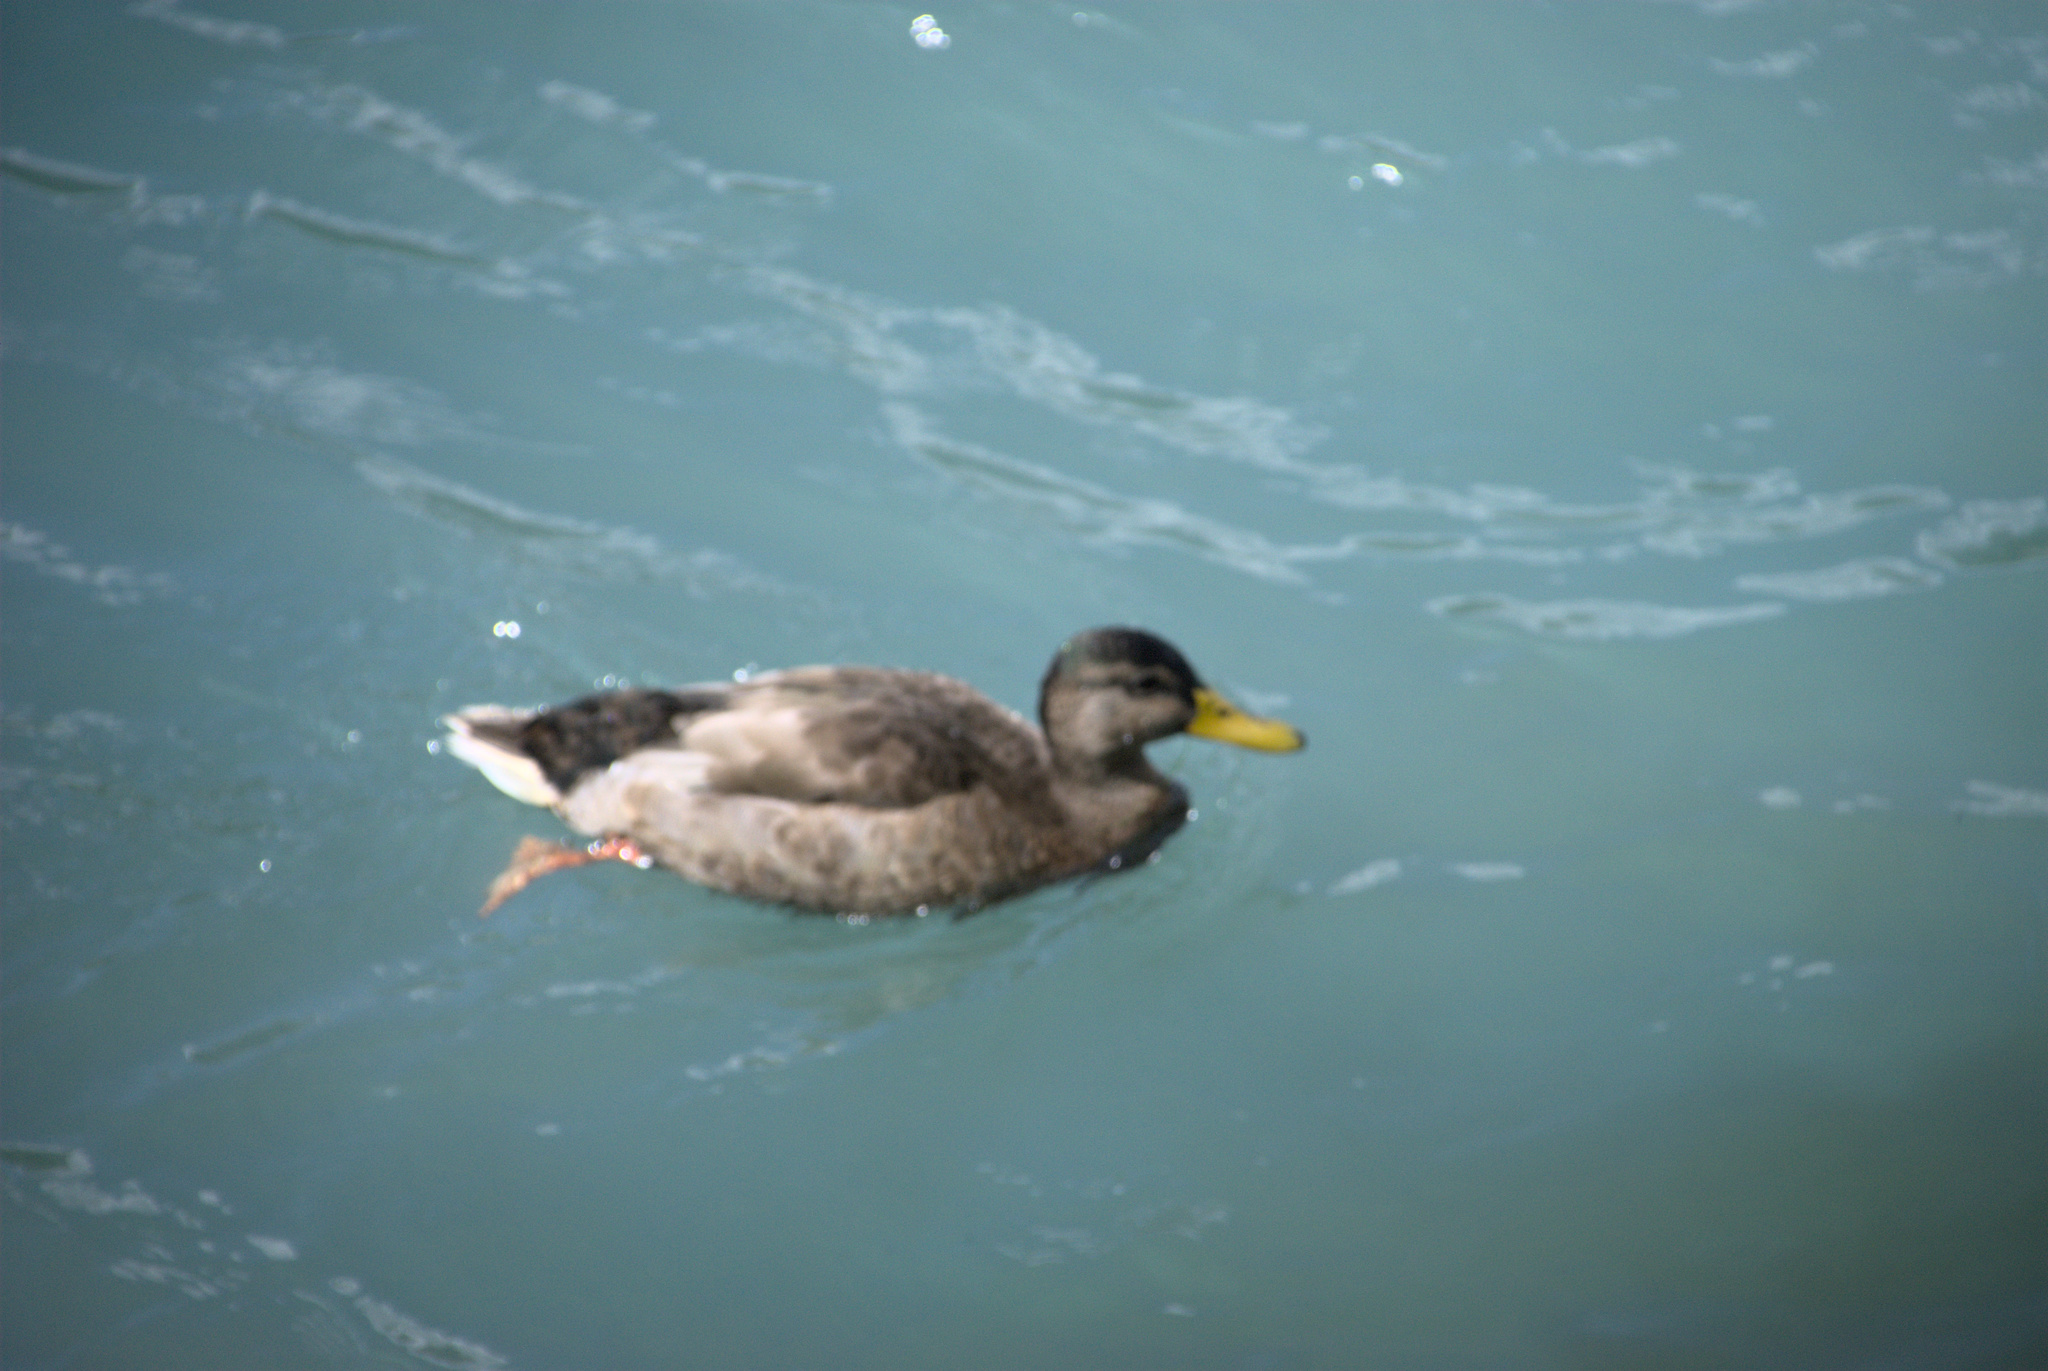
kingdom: Animalia
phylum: Chordata
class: Aves
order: Anseriformes
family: Anatidae
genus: Anas
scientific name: Anas platyrhynchos
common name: Mallard
